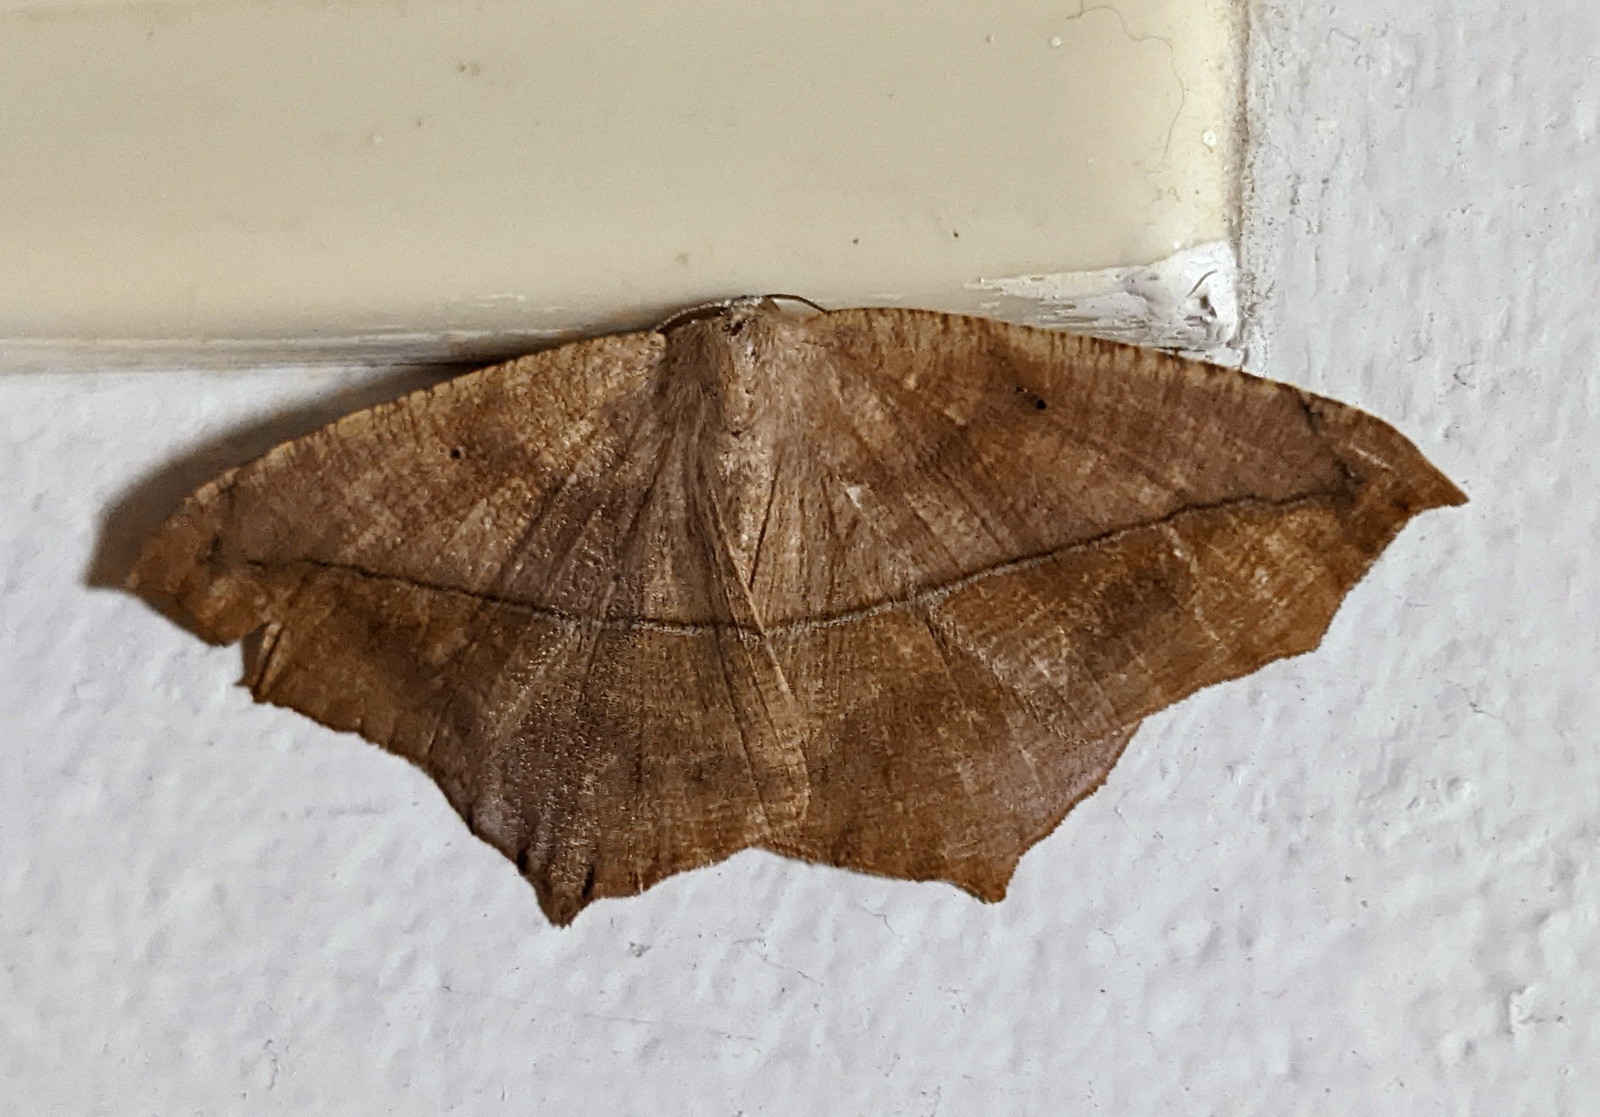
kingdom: Animalia
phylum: Arthropoda
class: Insecta
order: Lepidoptera
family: Geometridae
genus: Prochoerodes
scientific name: Prochoerodes lineola
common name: Large maple spanworm
